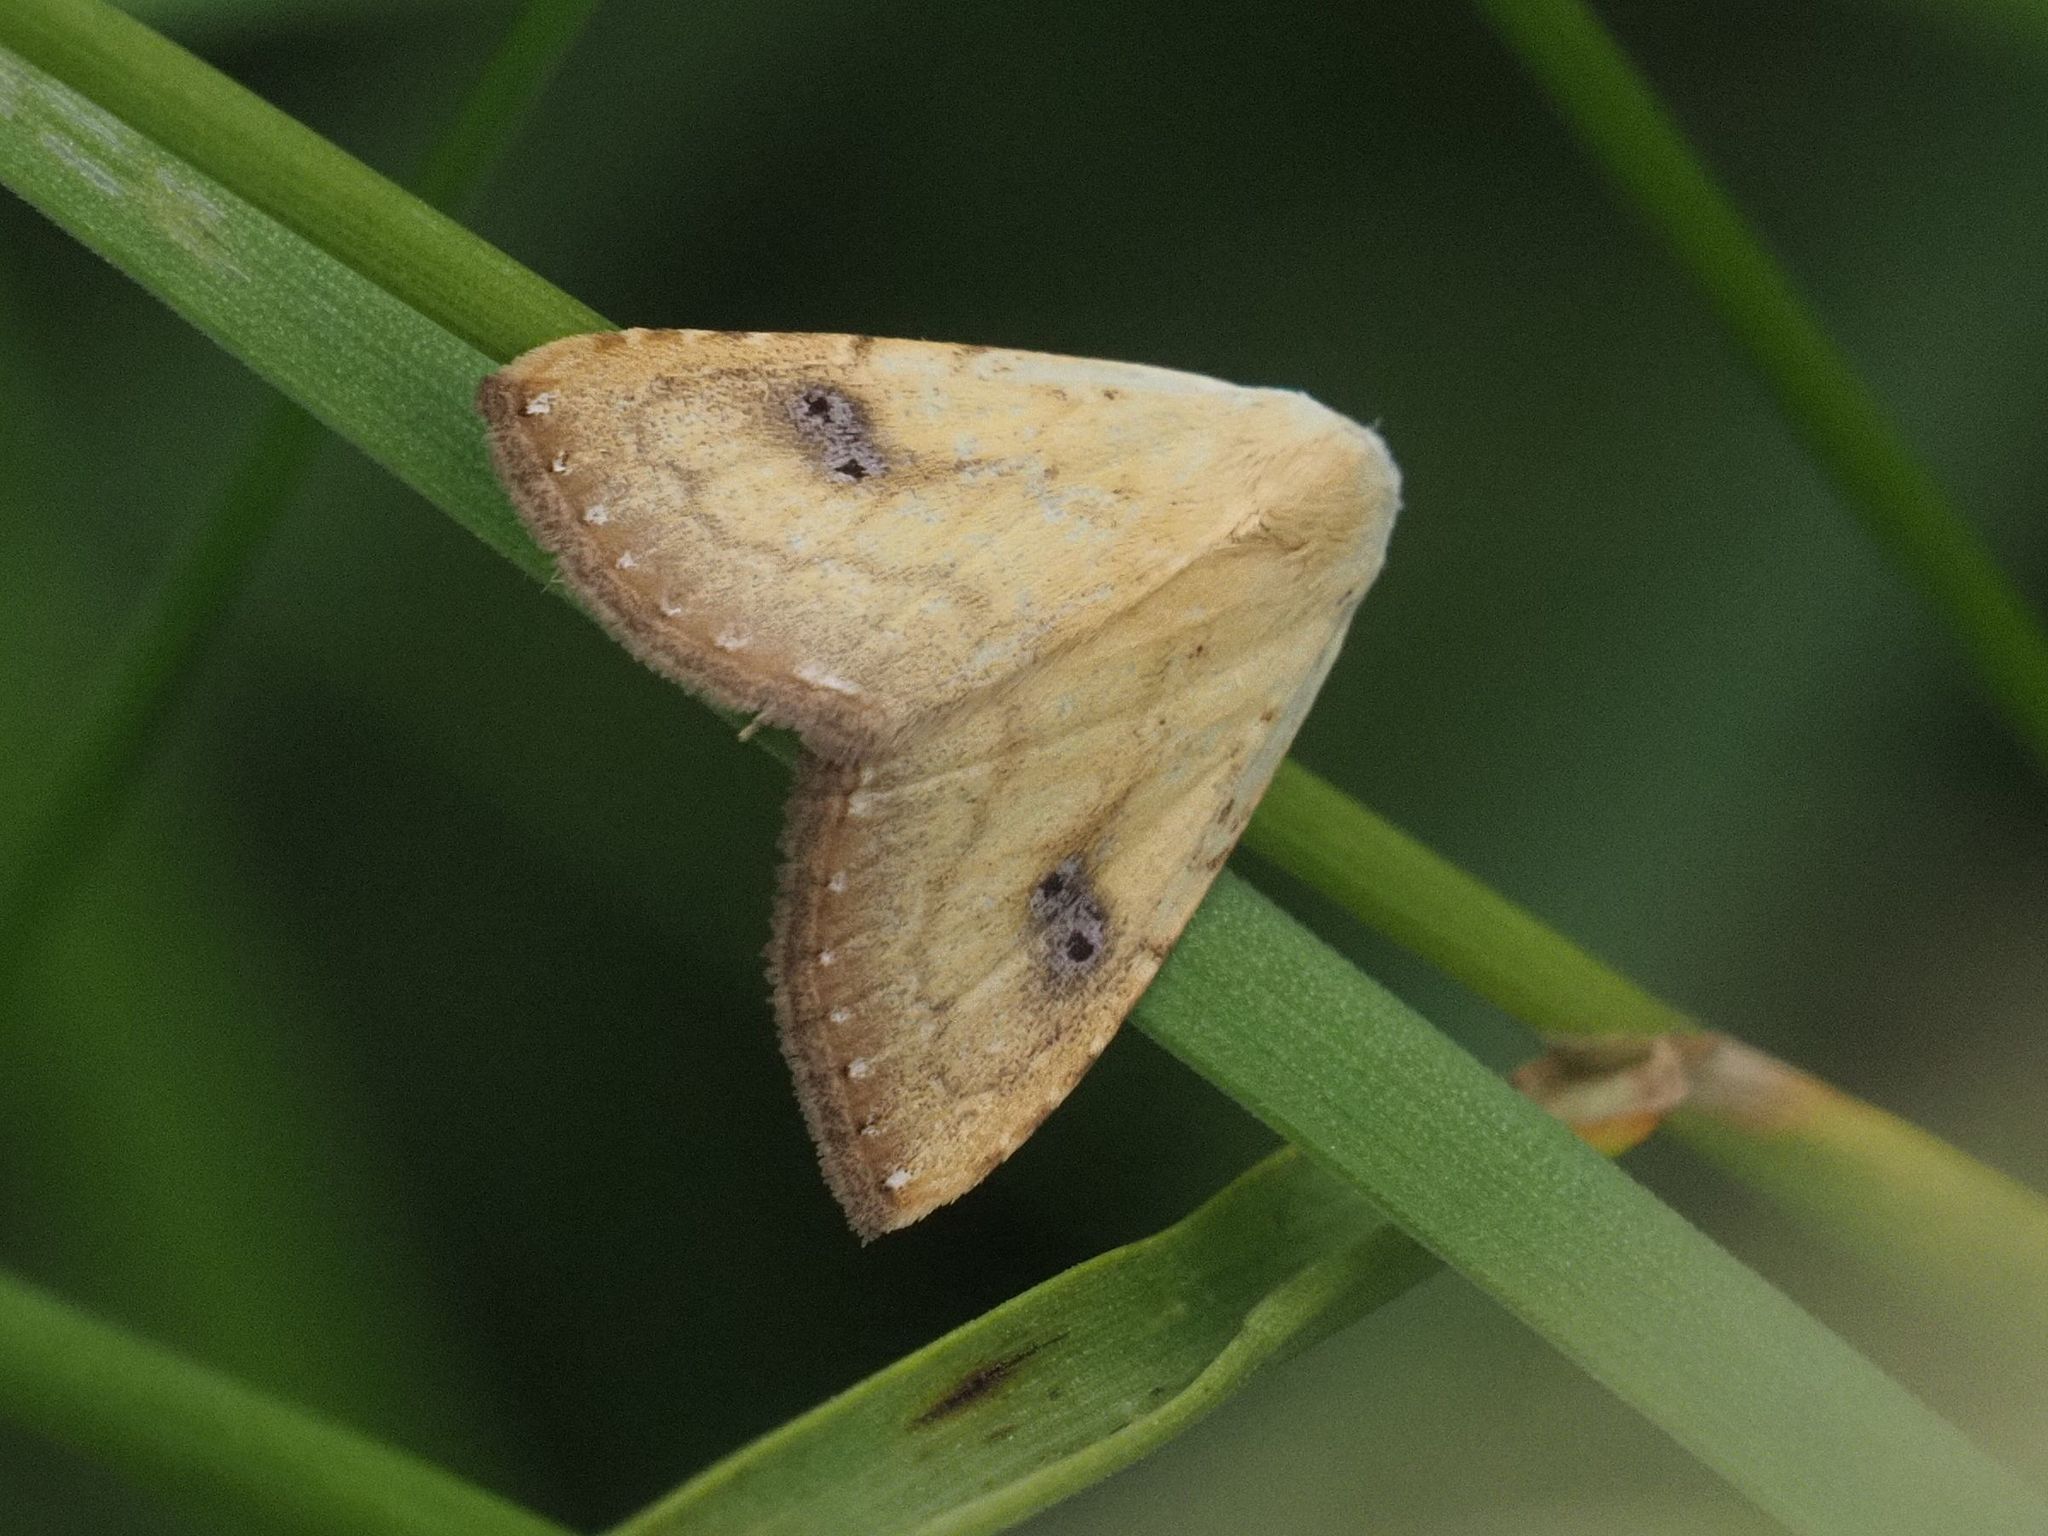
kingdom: Animalia
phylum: Arthropoda
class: Insecta
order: Lepidoptera
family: Erebidae
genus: Rivula
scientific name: Rivula sericealis
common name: Straw dot
